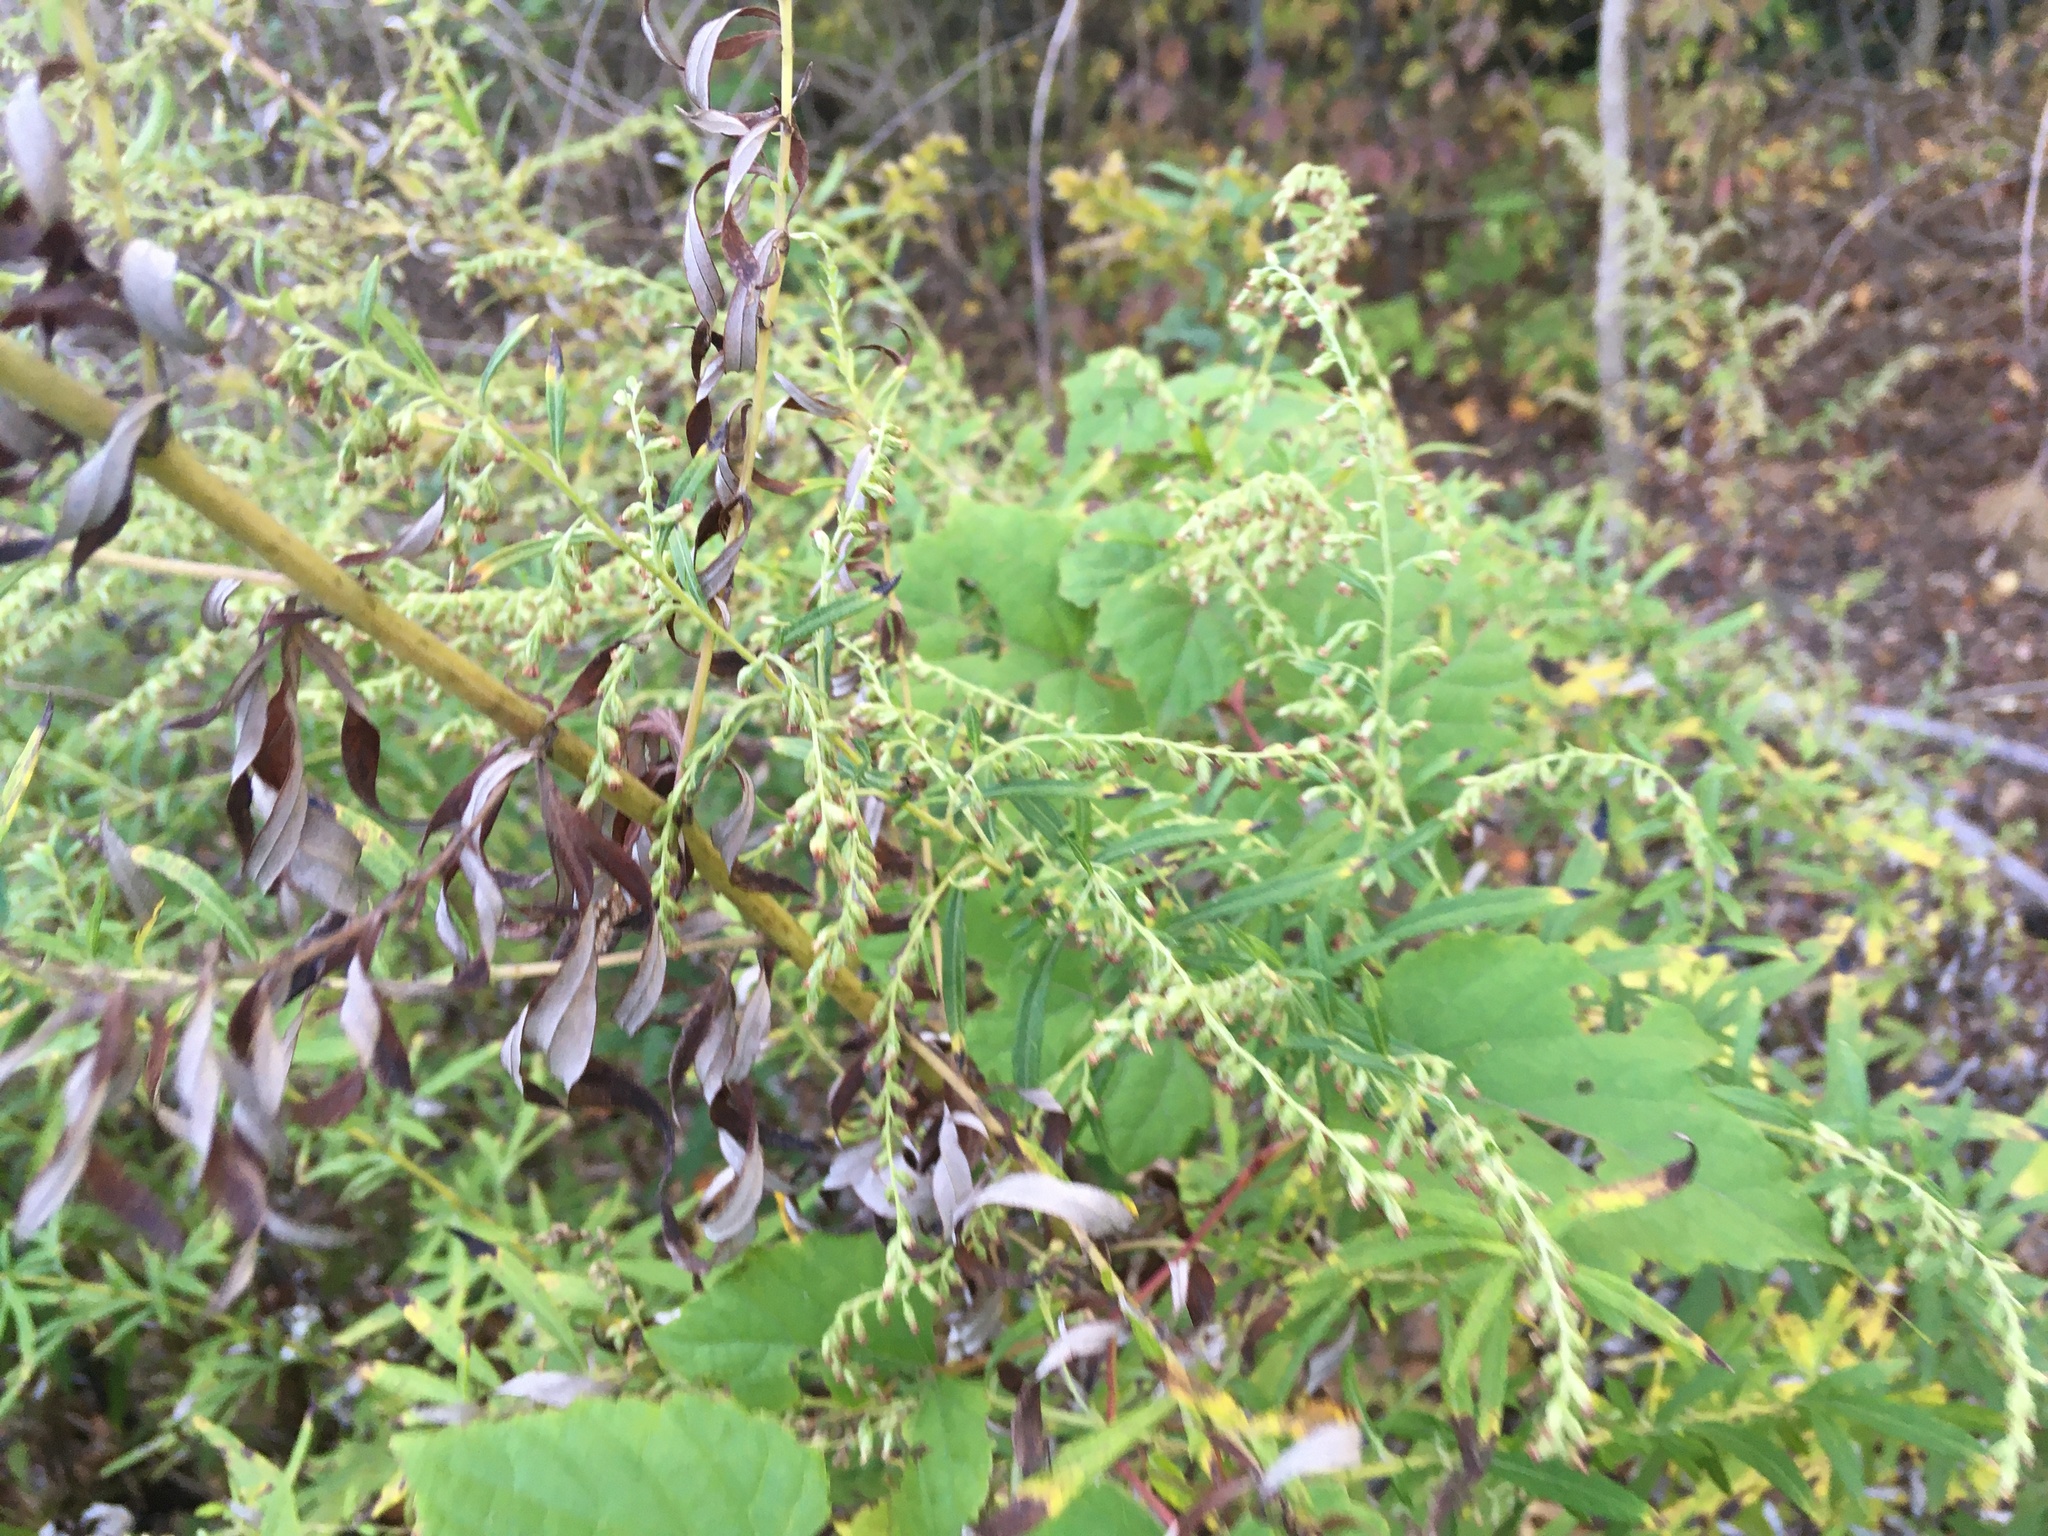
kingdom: Plantae
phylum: Tracheophyta
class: Magnoliopsida
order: Asterales
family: Asteraceae
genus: Artemisia
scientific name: Artemisia vulgaris
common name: Mugwort
